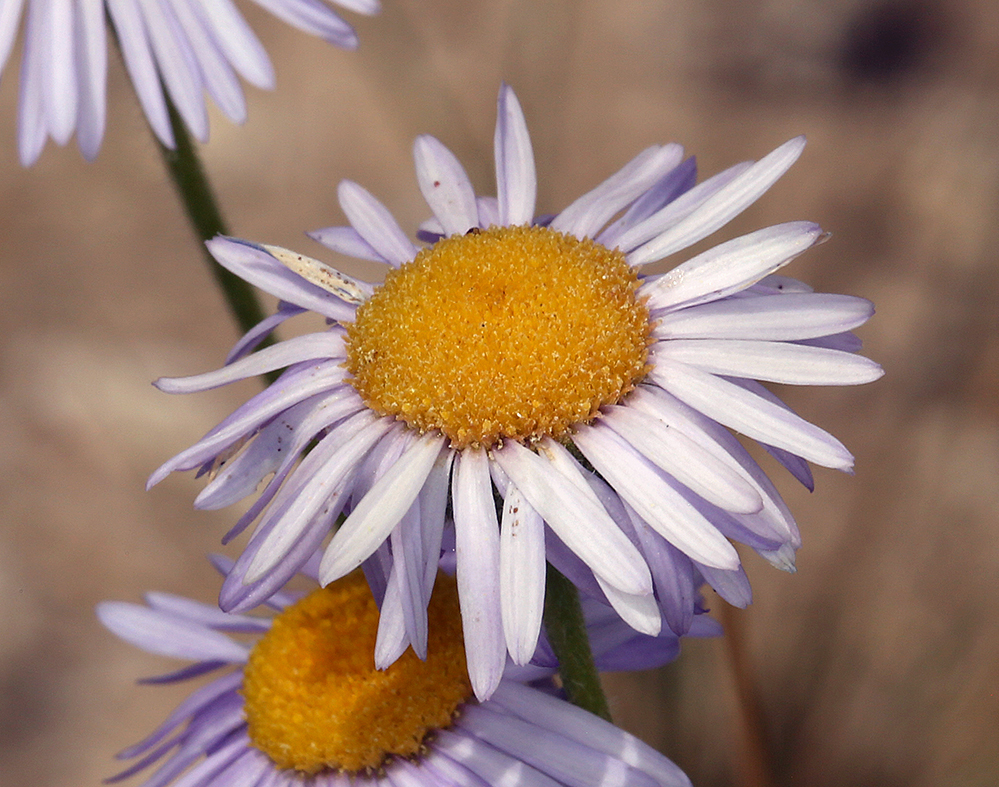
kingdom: Plantae
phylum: Tracheophyta
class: Magnoliopsida
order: Asterales
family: Asteraceae
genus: Erigeron
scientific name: Erigeron divergens
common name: Diffuse fleabane
